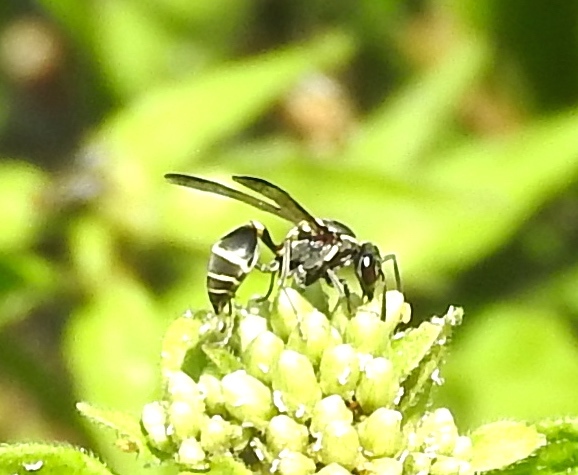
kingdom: Animalia
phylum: Arthropoda
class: Insecta
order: Hymenoptera
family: Eumenidae
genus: Polybia
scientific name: Polybia occidentalis
